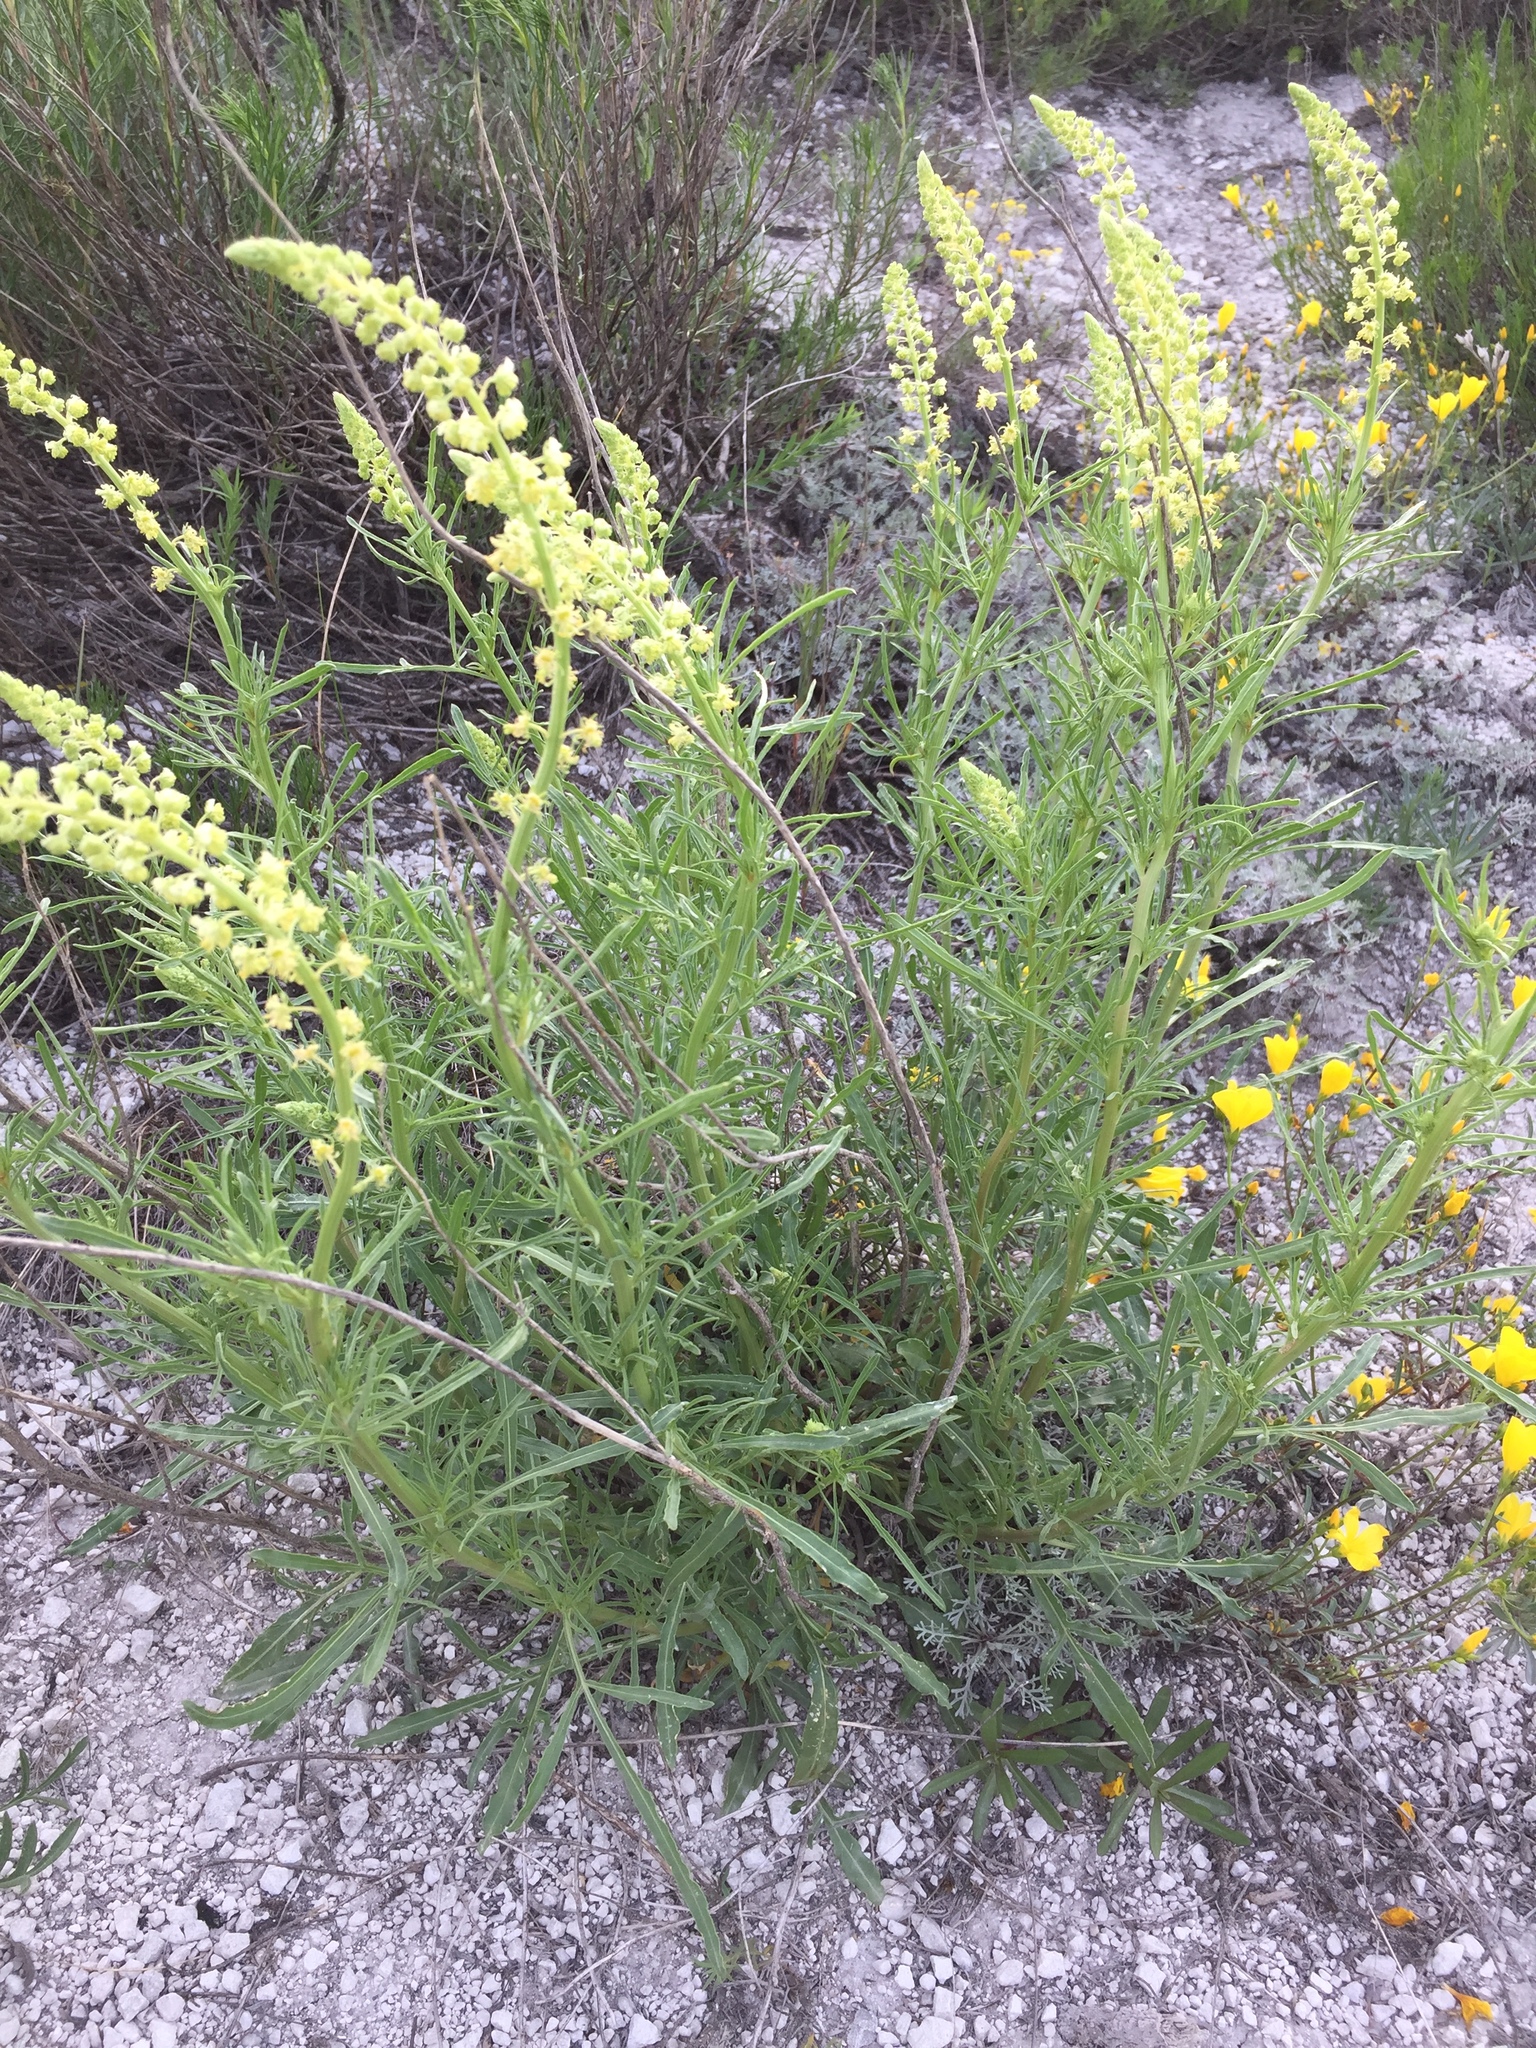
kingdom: Plantae
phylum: Tracheophyta
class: Magnoliopsida
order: Brassicales
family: Resedaceae
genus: Reseda
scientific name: Reseda lutea
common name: Wild mignonette
